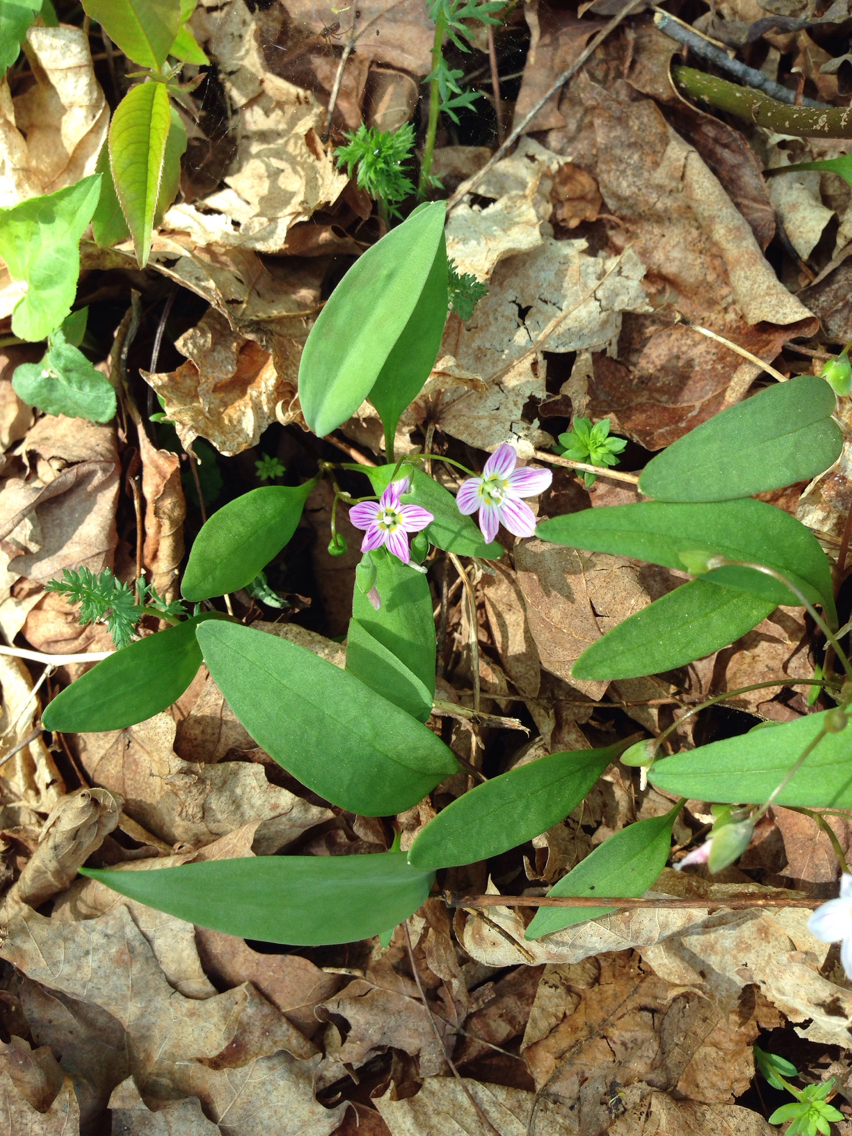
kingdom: Plantae
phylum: Tracheophyta
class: Magnoliopsida
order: Caryophyllales
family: Montiaceae
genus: Claytonia
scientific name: Claytonia caroliniana
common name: Carolina spring beauty
